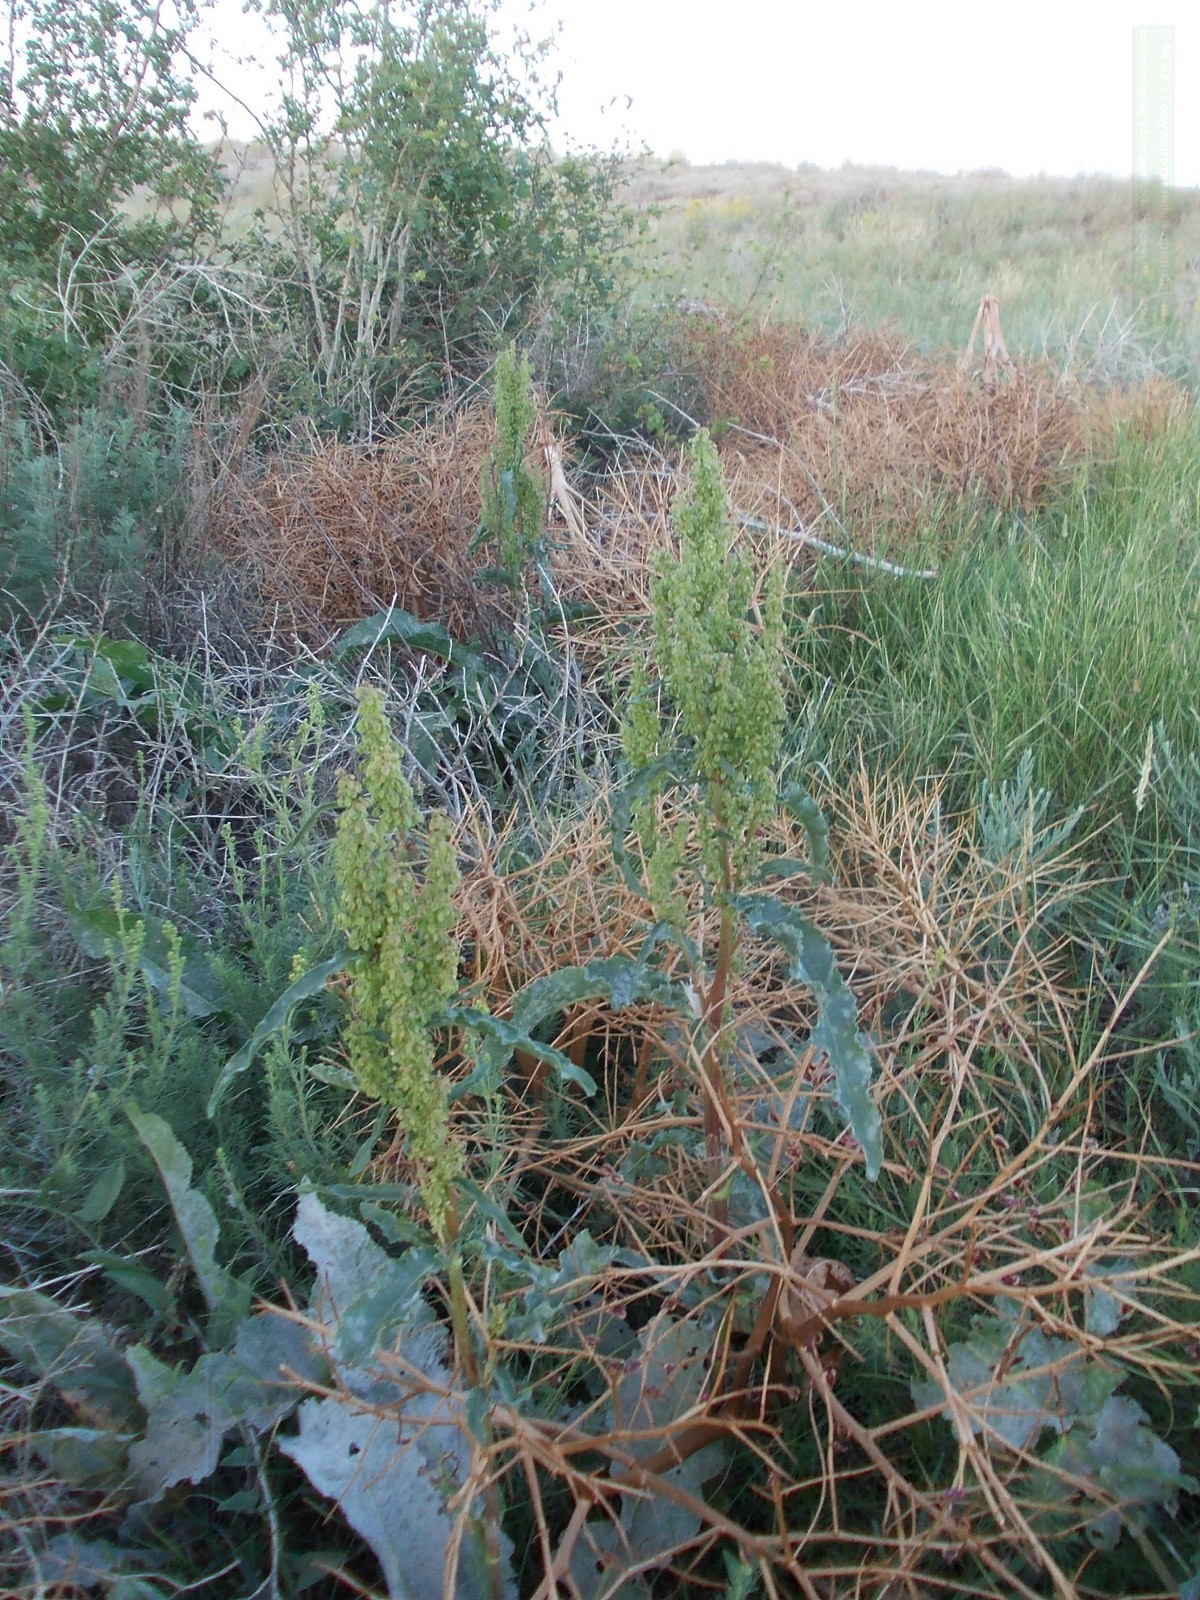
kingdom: Plantae
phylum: Tracheophyta
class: Magnoliopsida
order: Caryophyllales
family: Polygonaceae
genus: Rumex
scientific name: Rumex crispus
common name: Curled dock
